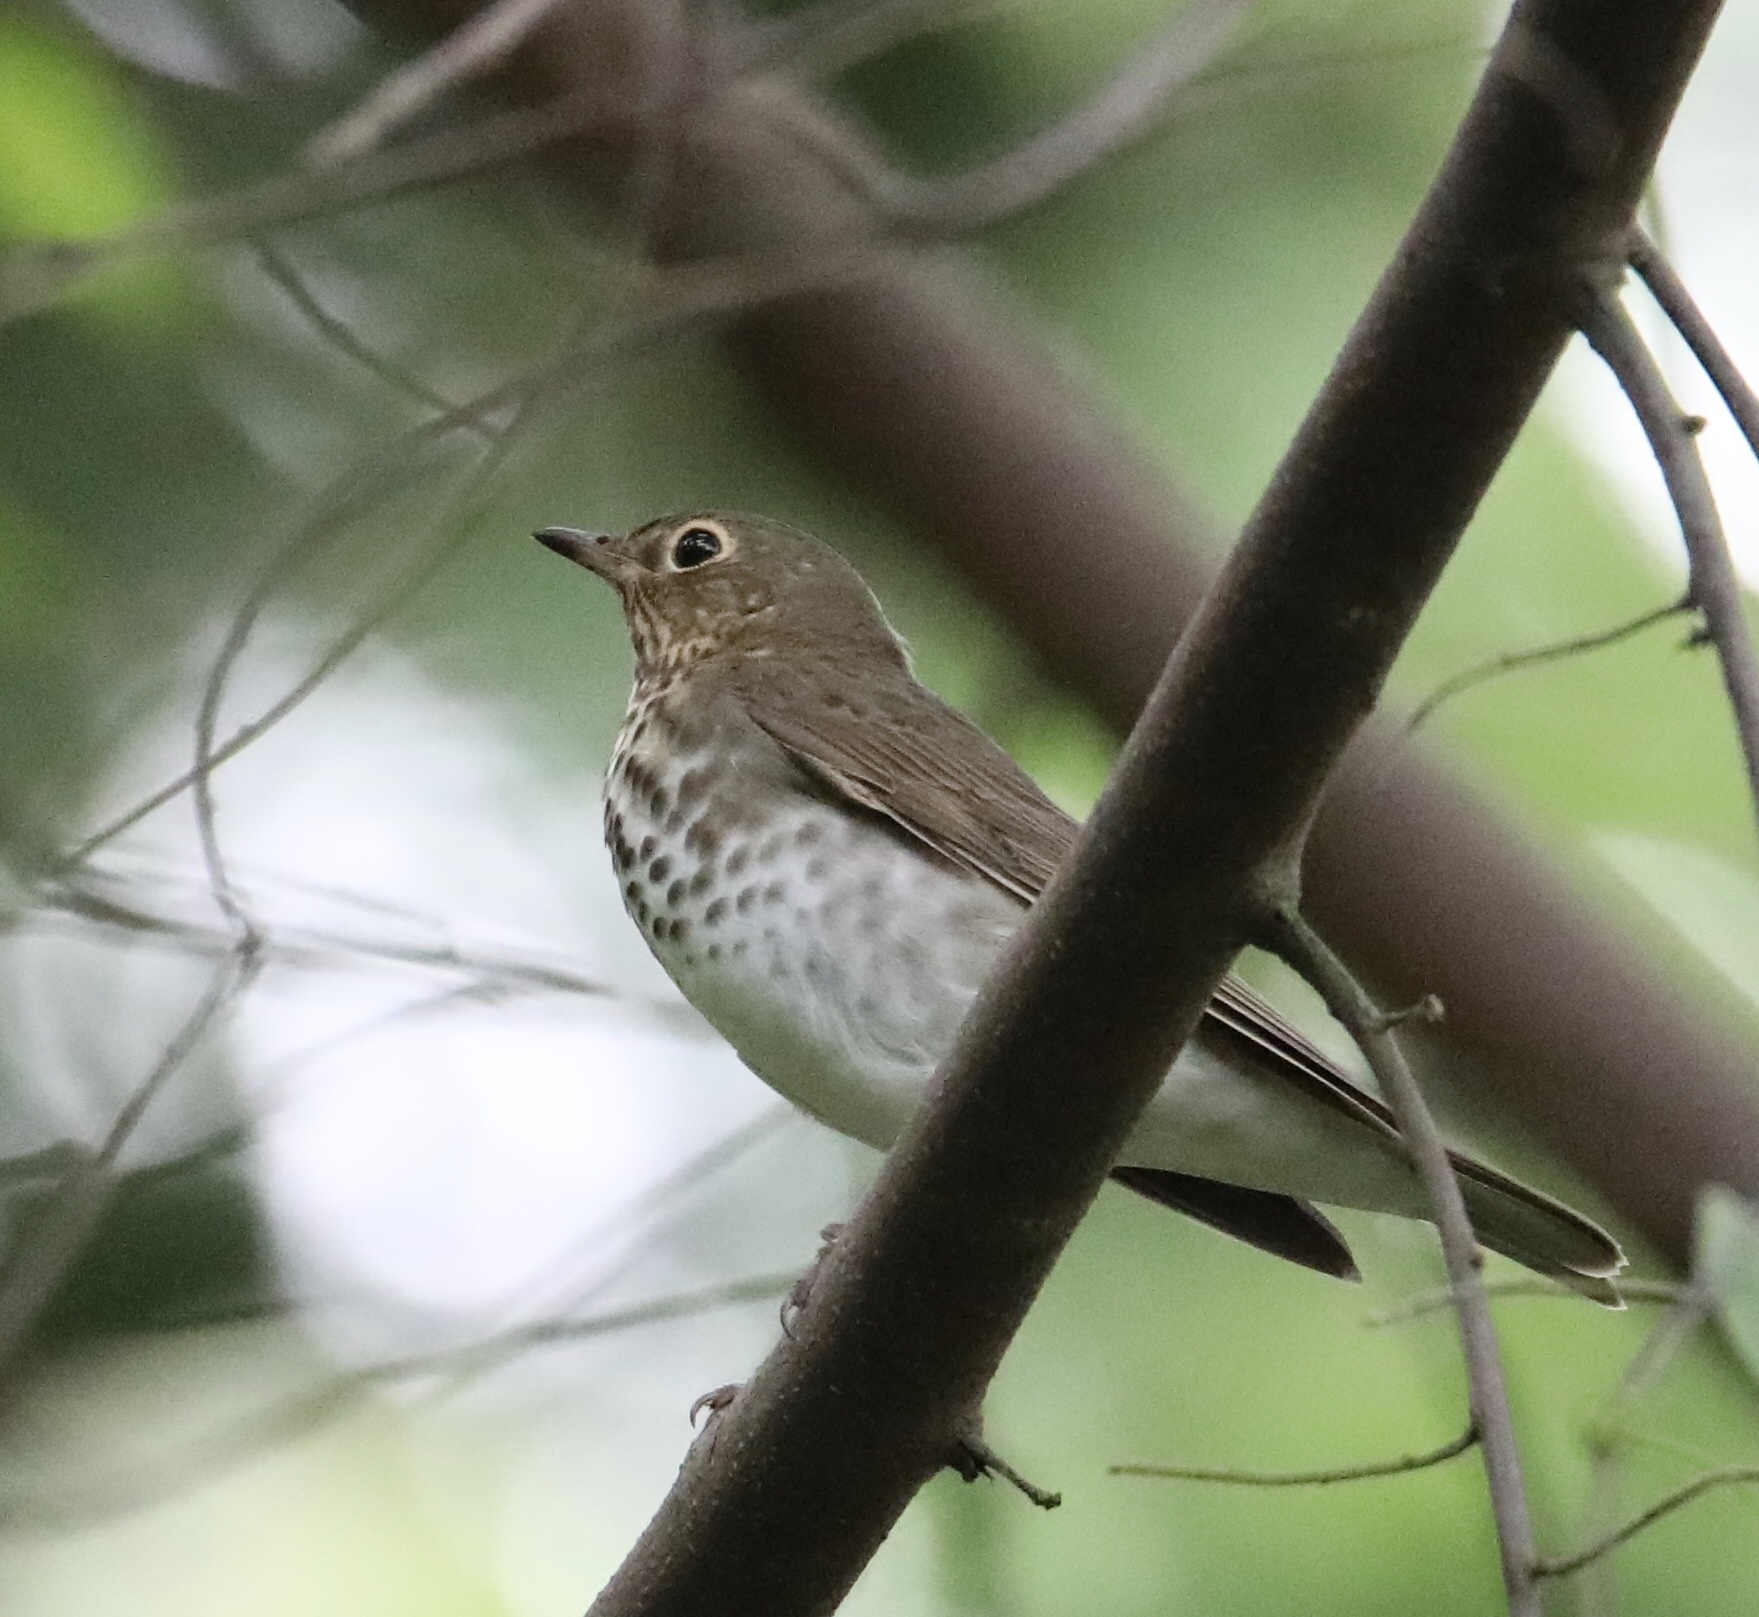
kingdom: Animalia
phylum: Chordata
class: Aves
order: Passeriformes
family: Turdidae
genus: Catharus
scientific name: Catharus ustulatus
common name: Swainson's thrush
